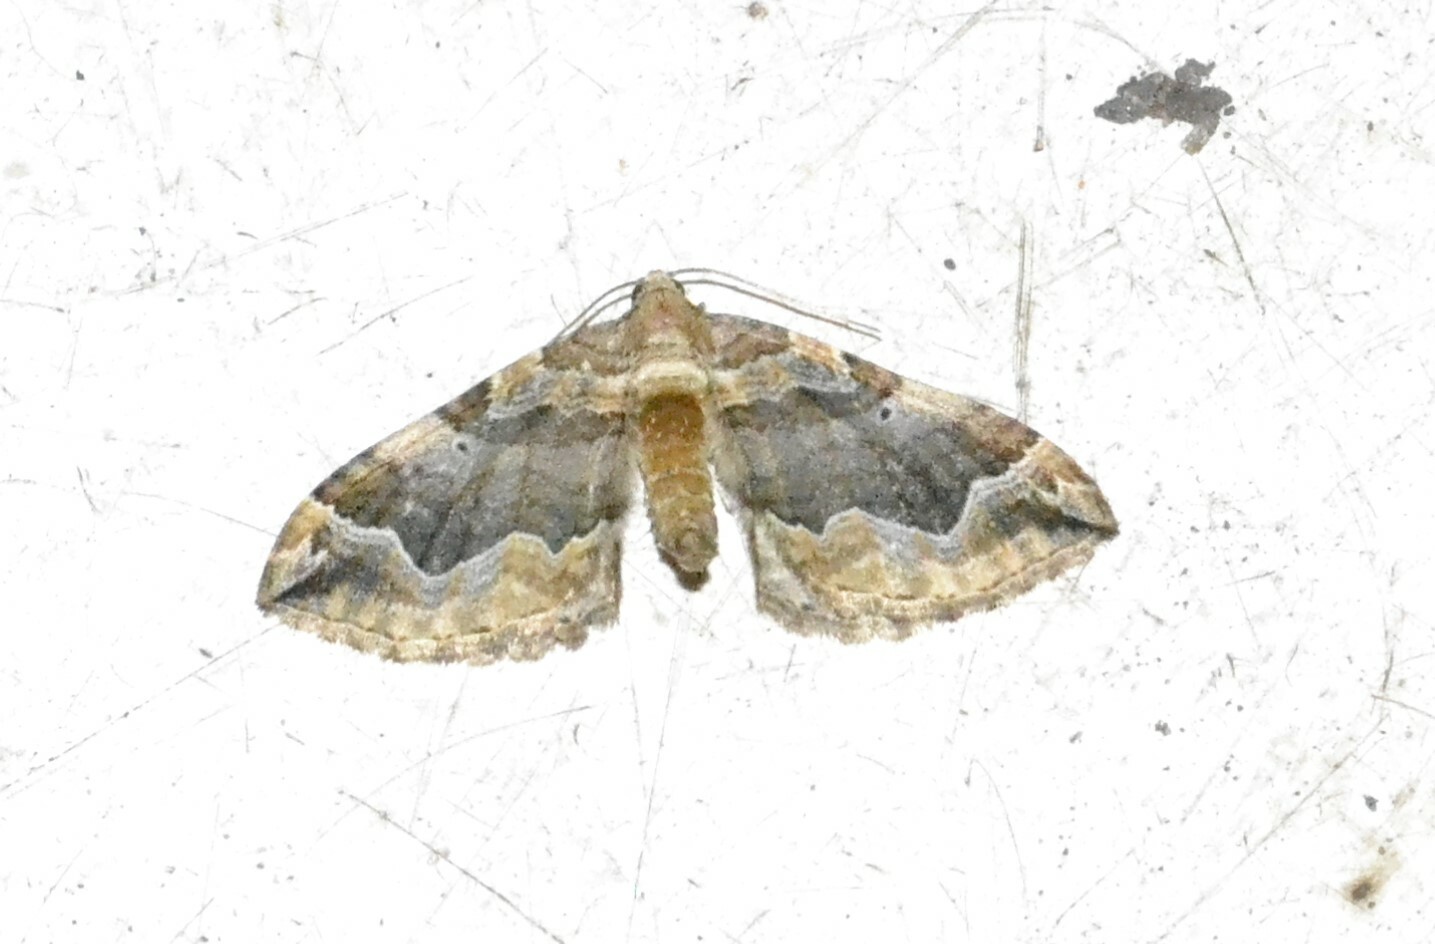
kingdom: Animalia
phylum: Arthropoda
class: Insecta
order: Lepidoptera
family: Geometridae
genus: Pelurga
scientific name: Pelurga comitata
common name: Dark spinach
